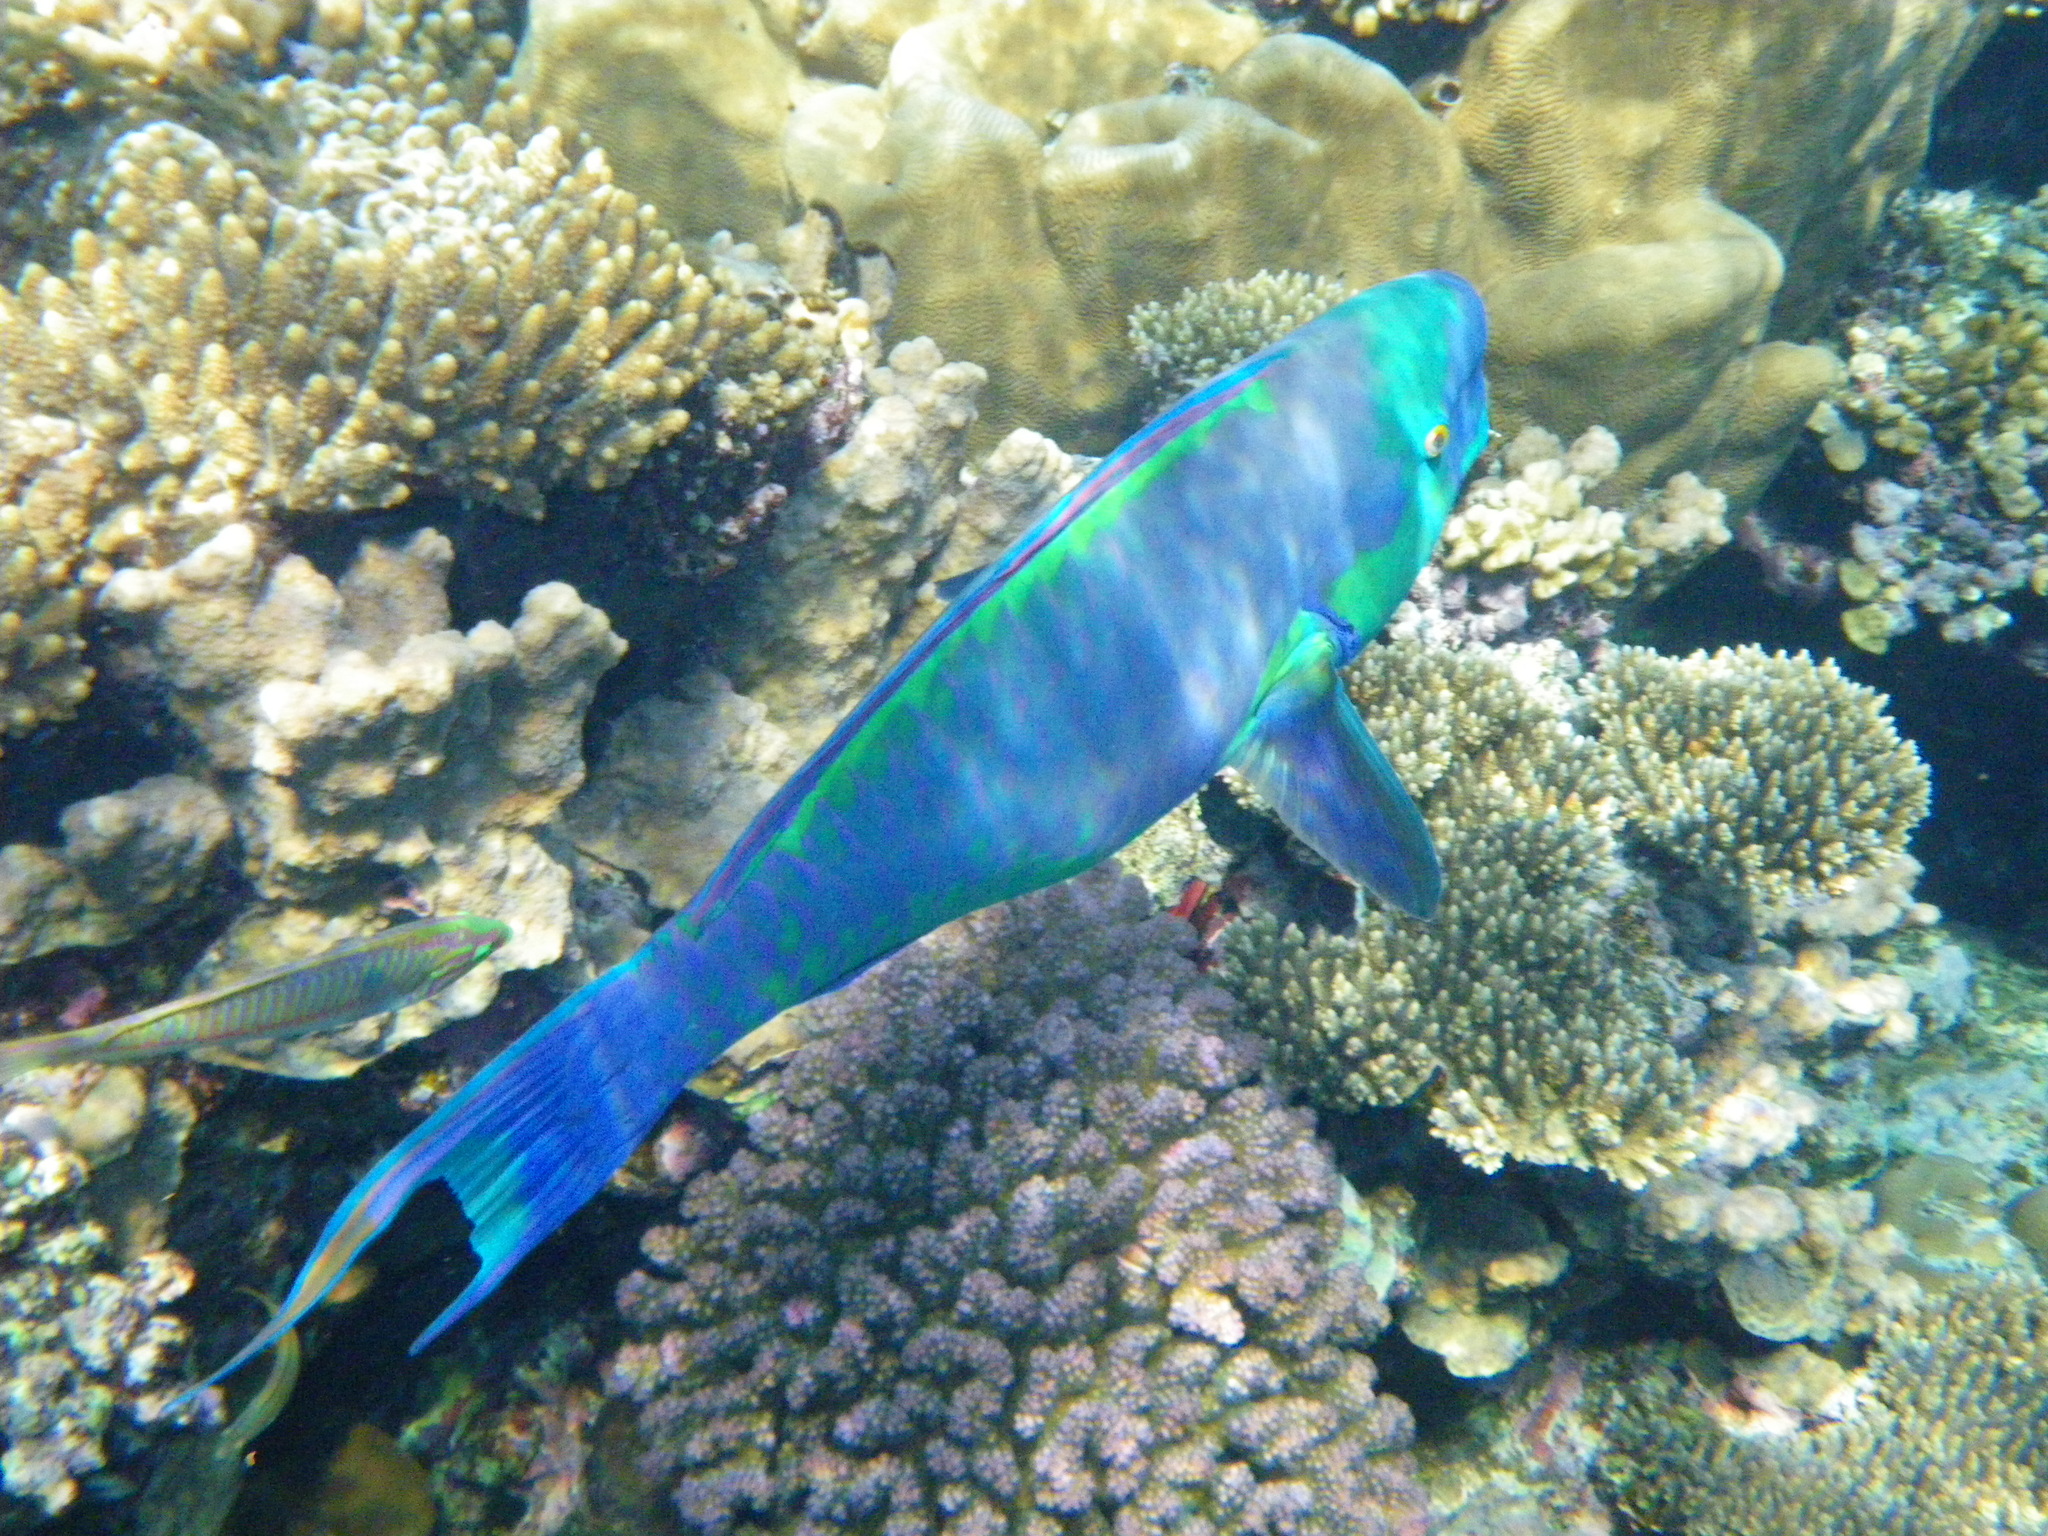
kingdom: Animalia
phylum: Chordata
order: Perciformes
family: Scaridae
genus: Chlorurus
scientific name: Chlorurus gibbus
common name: Heavybeak parrotfish
